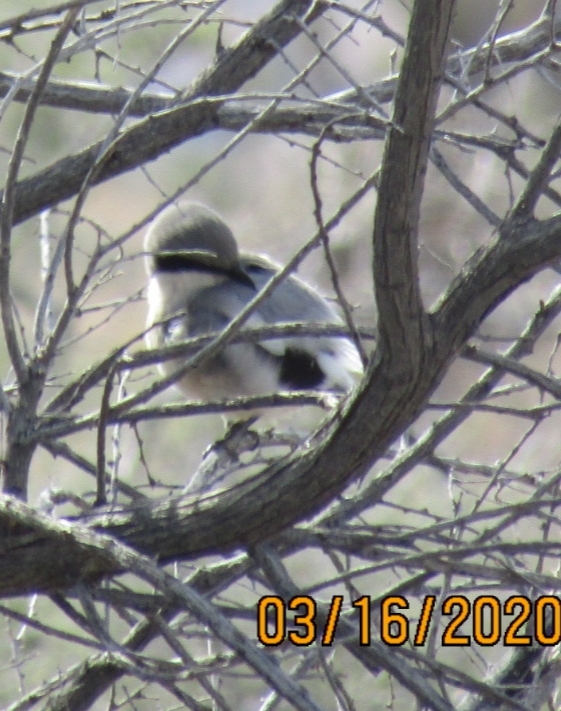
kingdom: Animalia
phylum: Chordata
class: Aves
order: Passeriformes
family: Laniidae
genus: Lanius
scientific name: Lanius ludovicianus
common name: Loggerhead shrike
